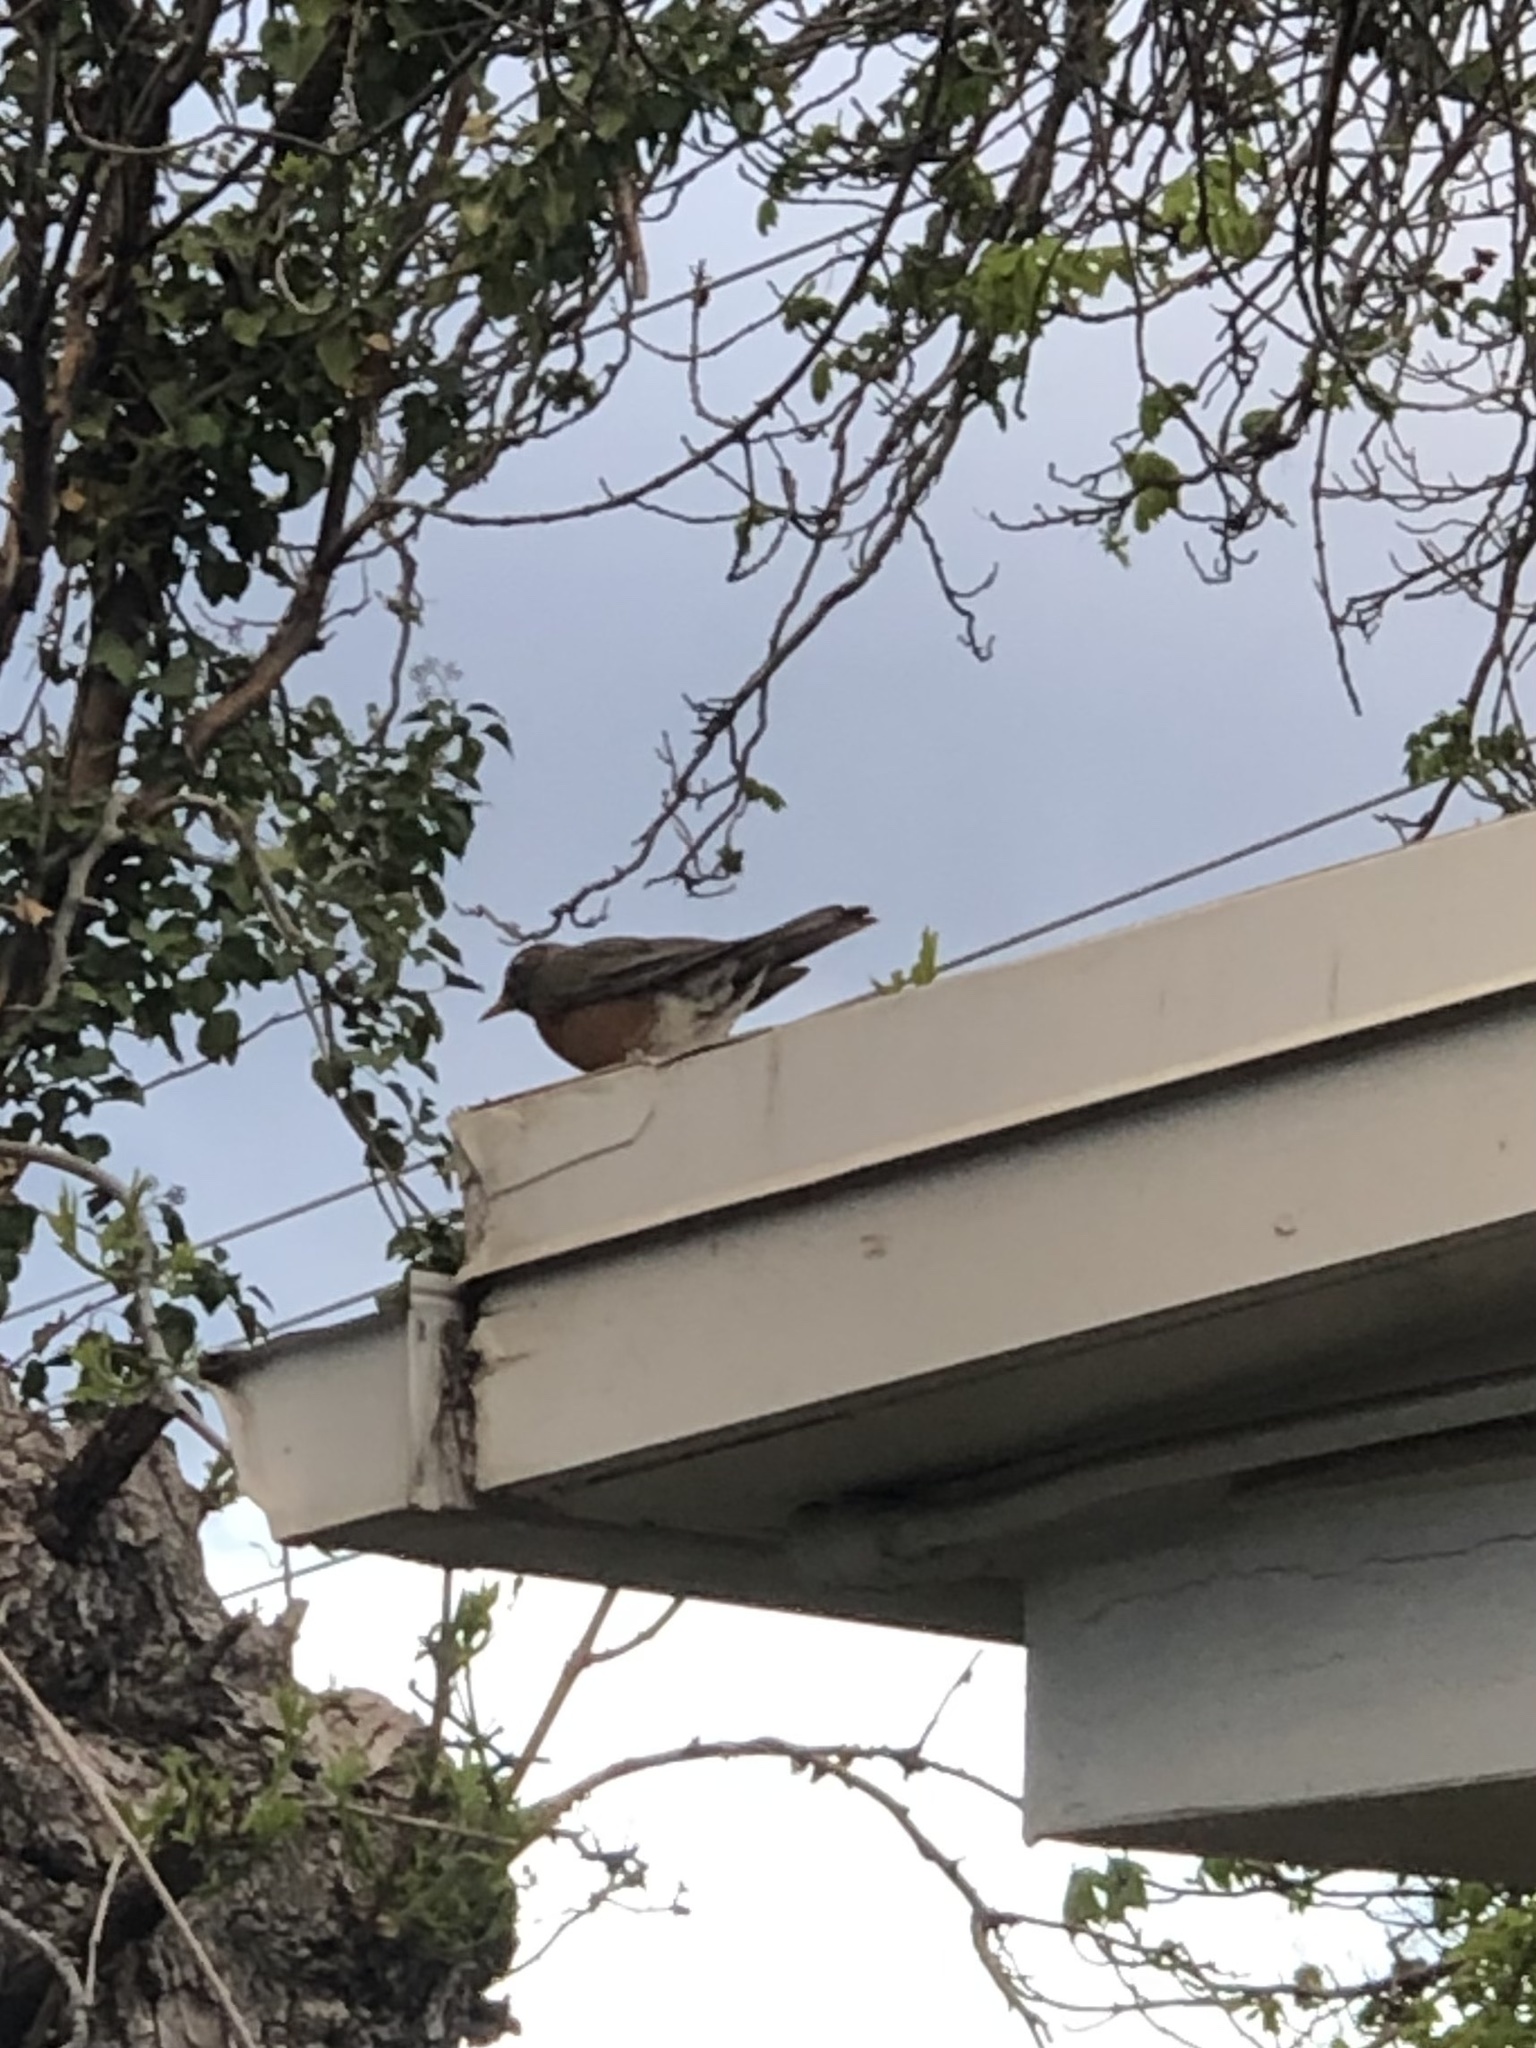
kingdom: Animalia
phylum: Chordata
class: Aves
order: Passeriformes
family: Turdidae
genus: Turdus
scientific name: Turdus migratorius
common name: American robin
